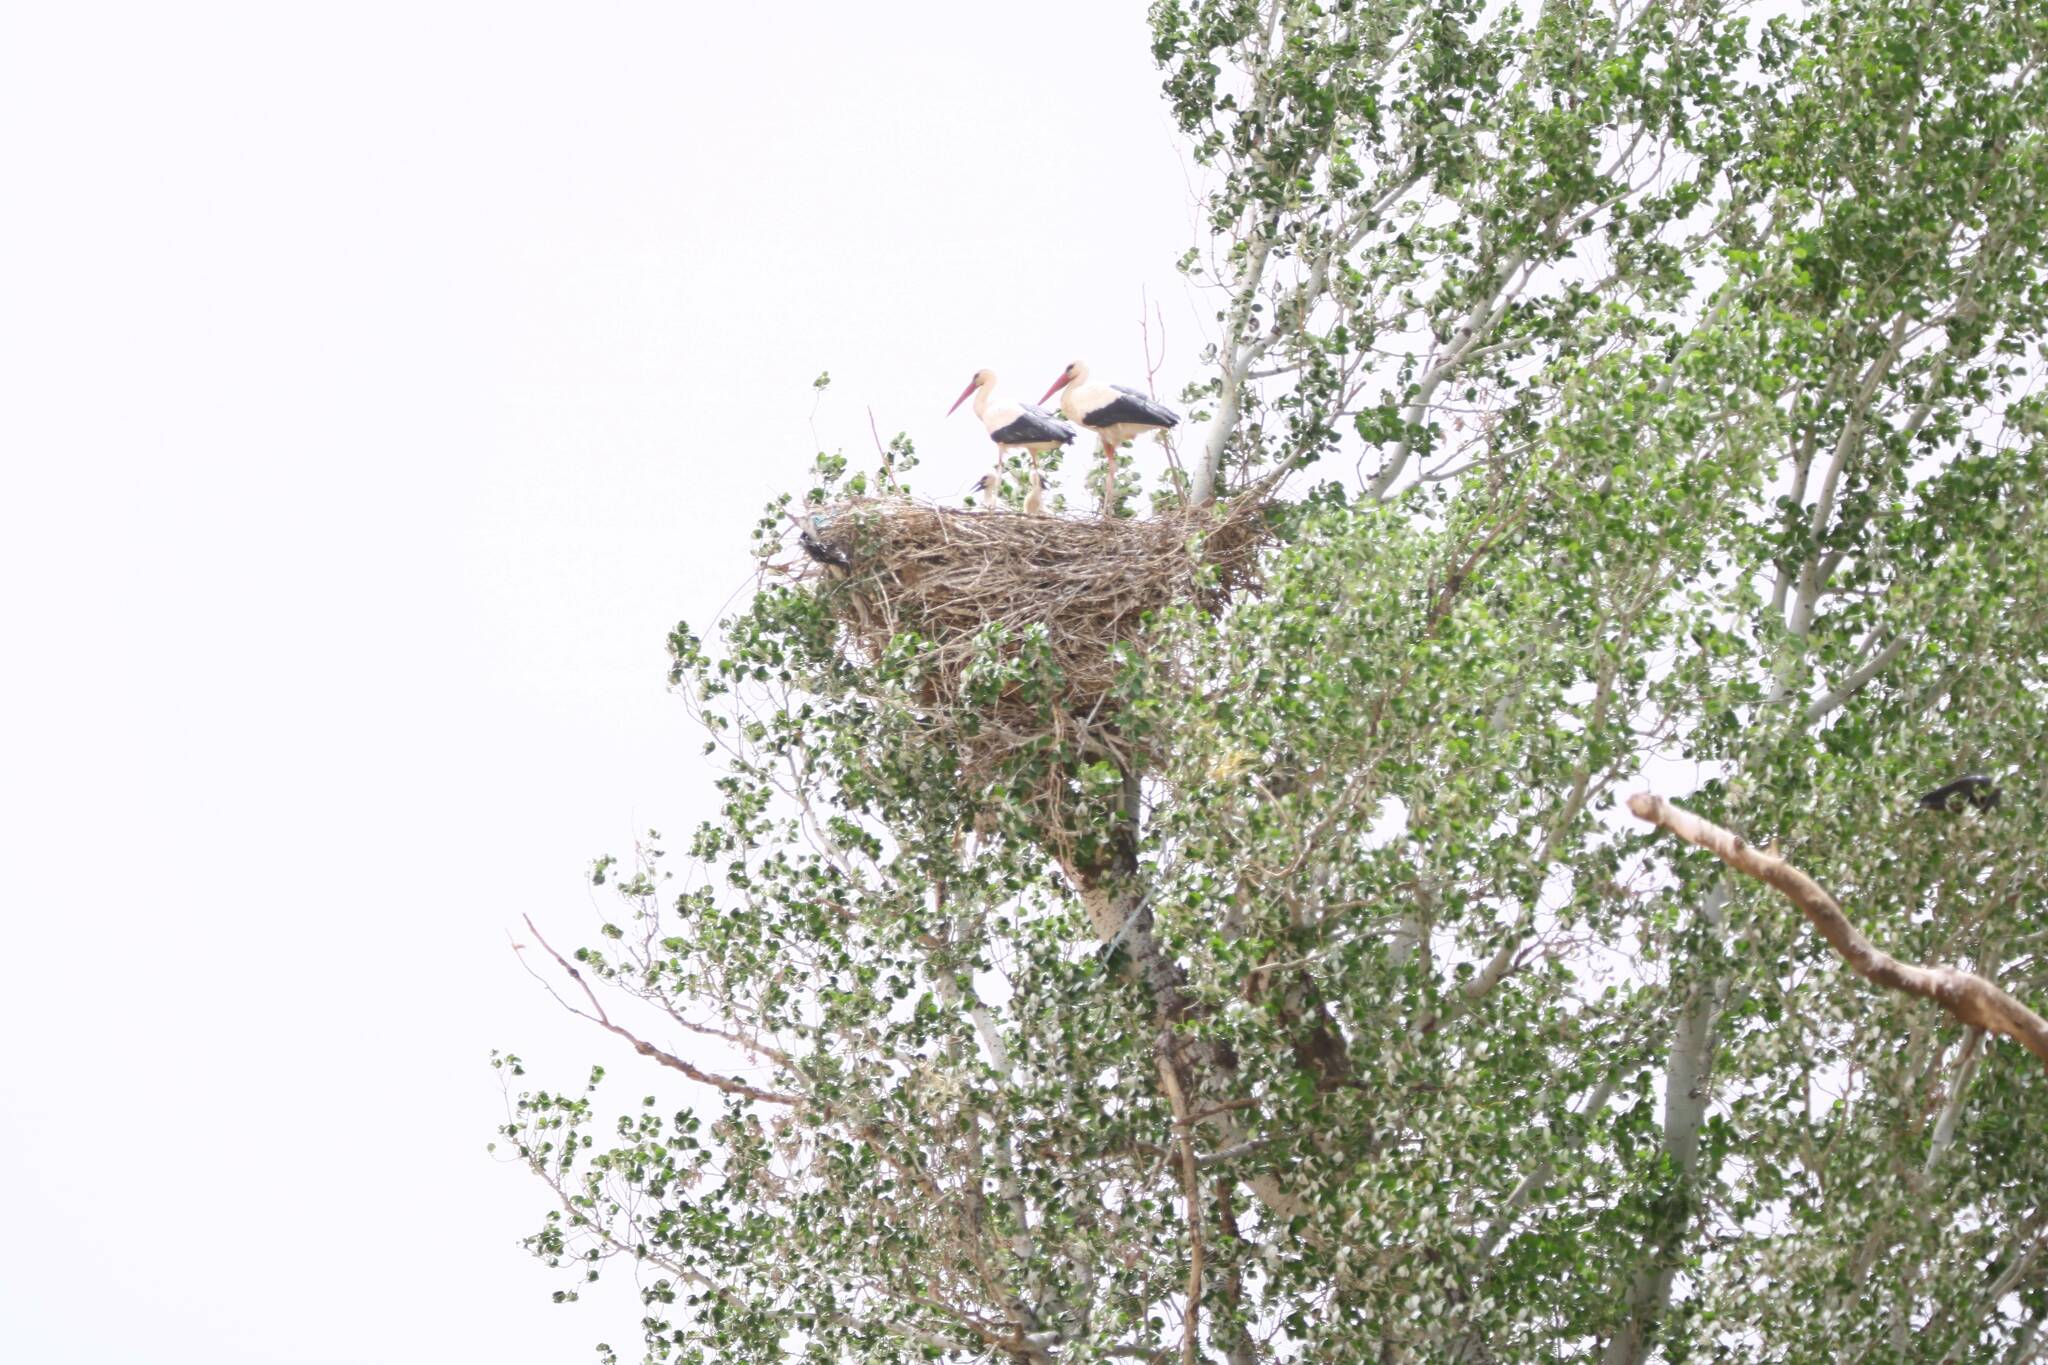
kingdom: Animalia
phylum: Chordata
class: Aves
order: Ciconiiformes
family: Ciconiidae
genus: Ciconia
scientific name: Ciconia ciconia
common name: White stork
